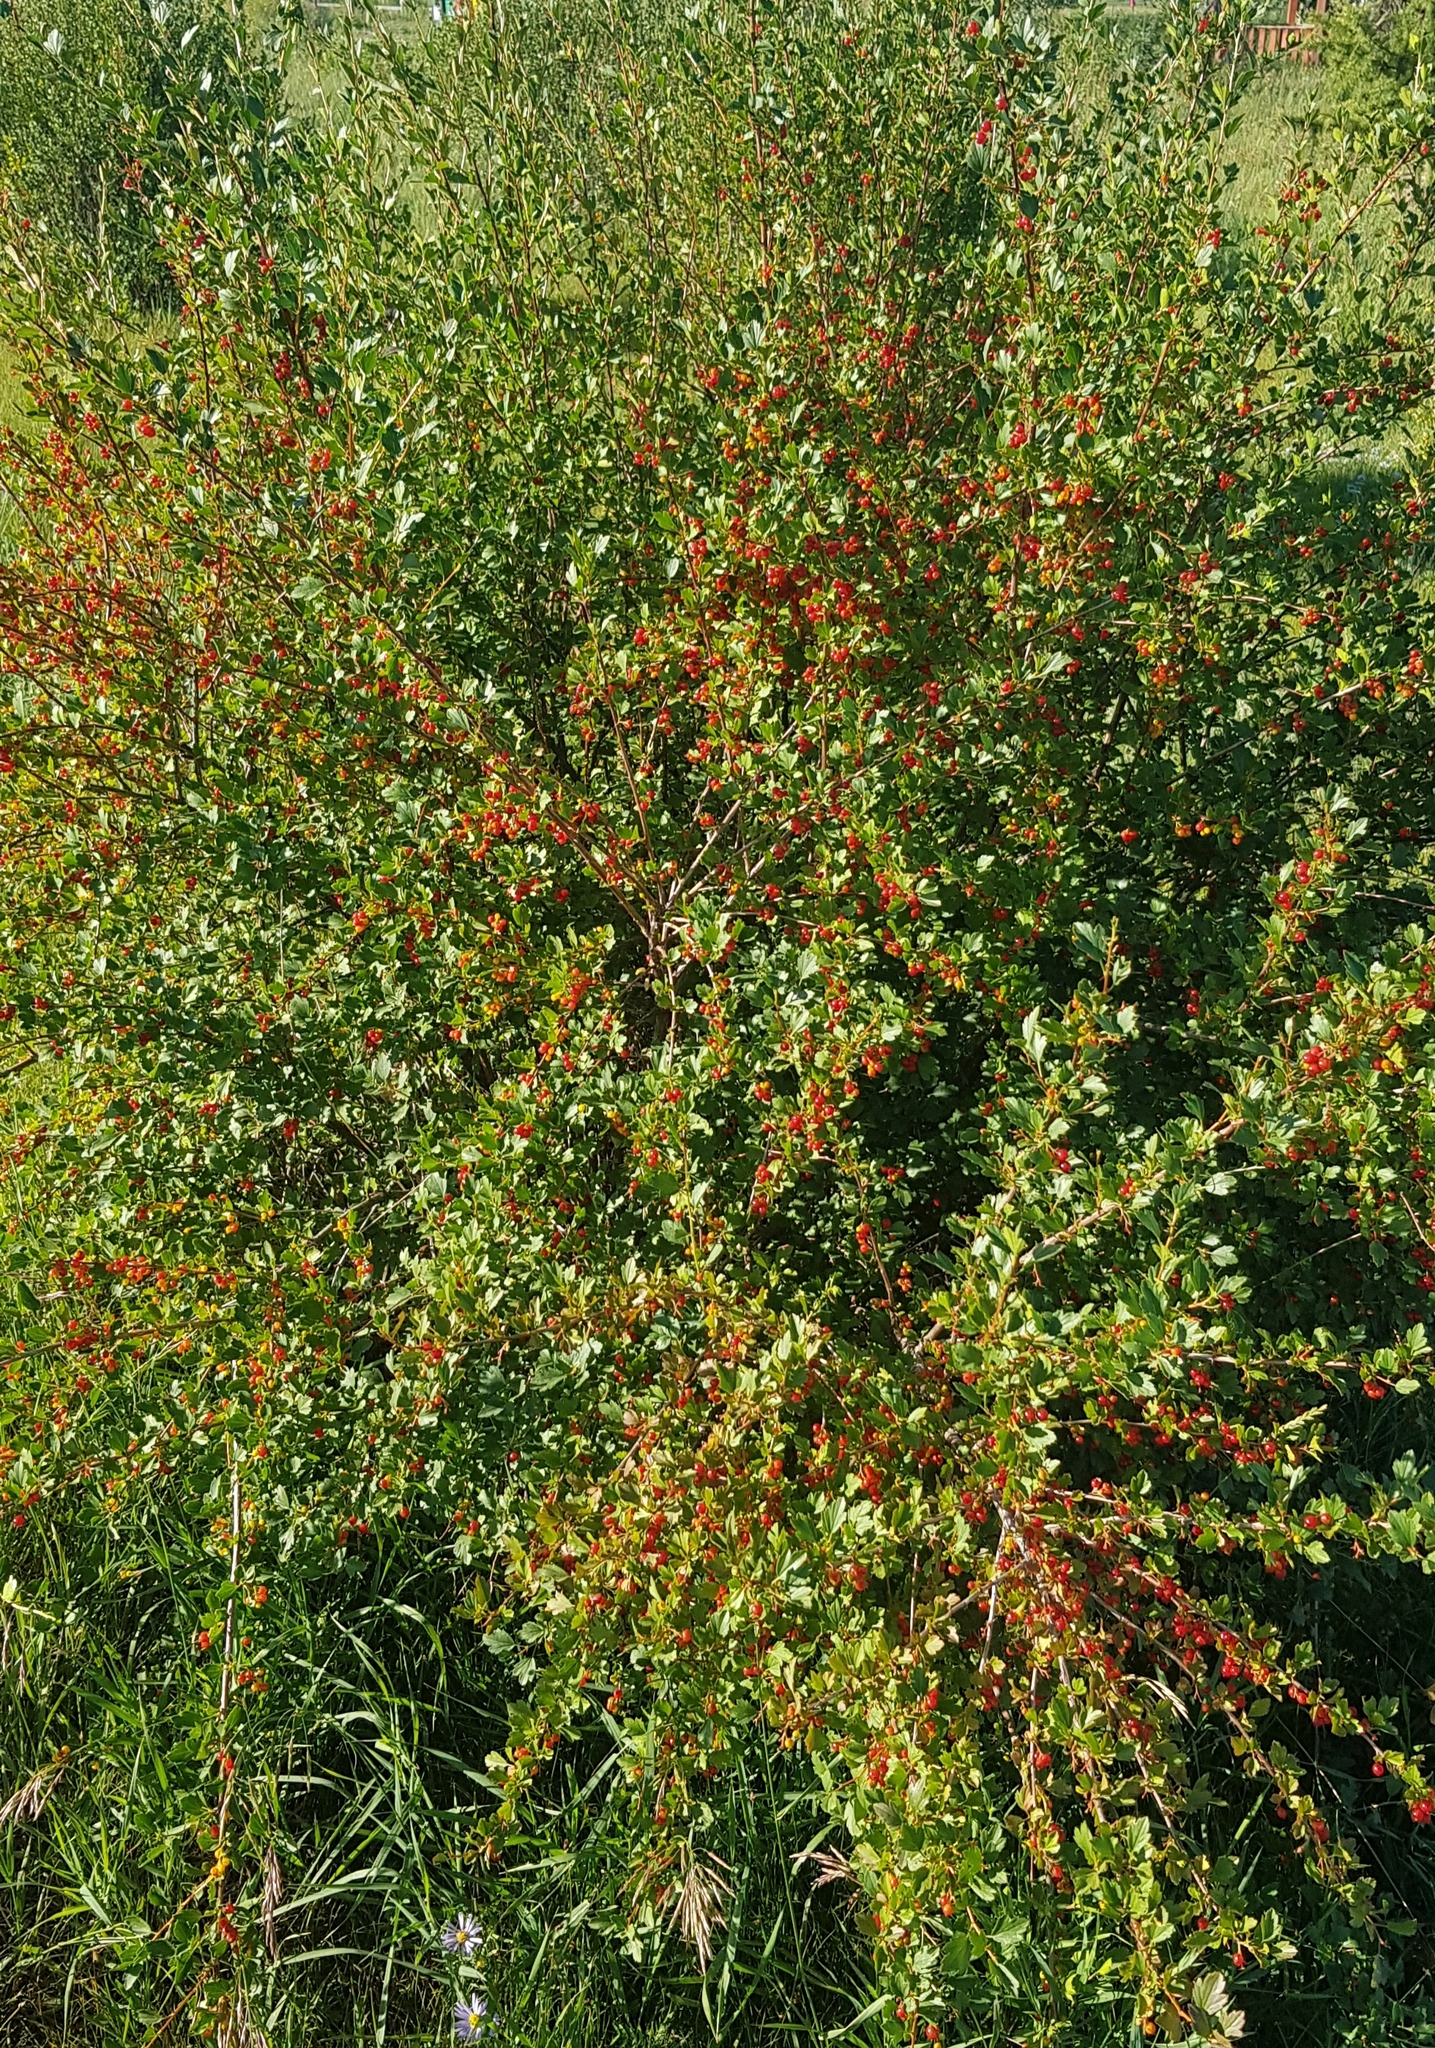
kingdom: Plantae
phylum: Tracheophyta
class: Magnoliopsida
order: Saxifragales
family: Grossulariaceae
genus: Ribes
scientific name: Ribes diacanthum
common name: Siberian currant
